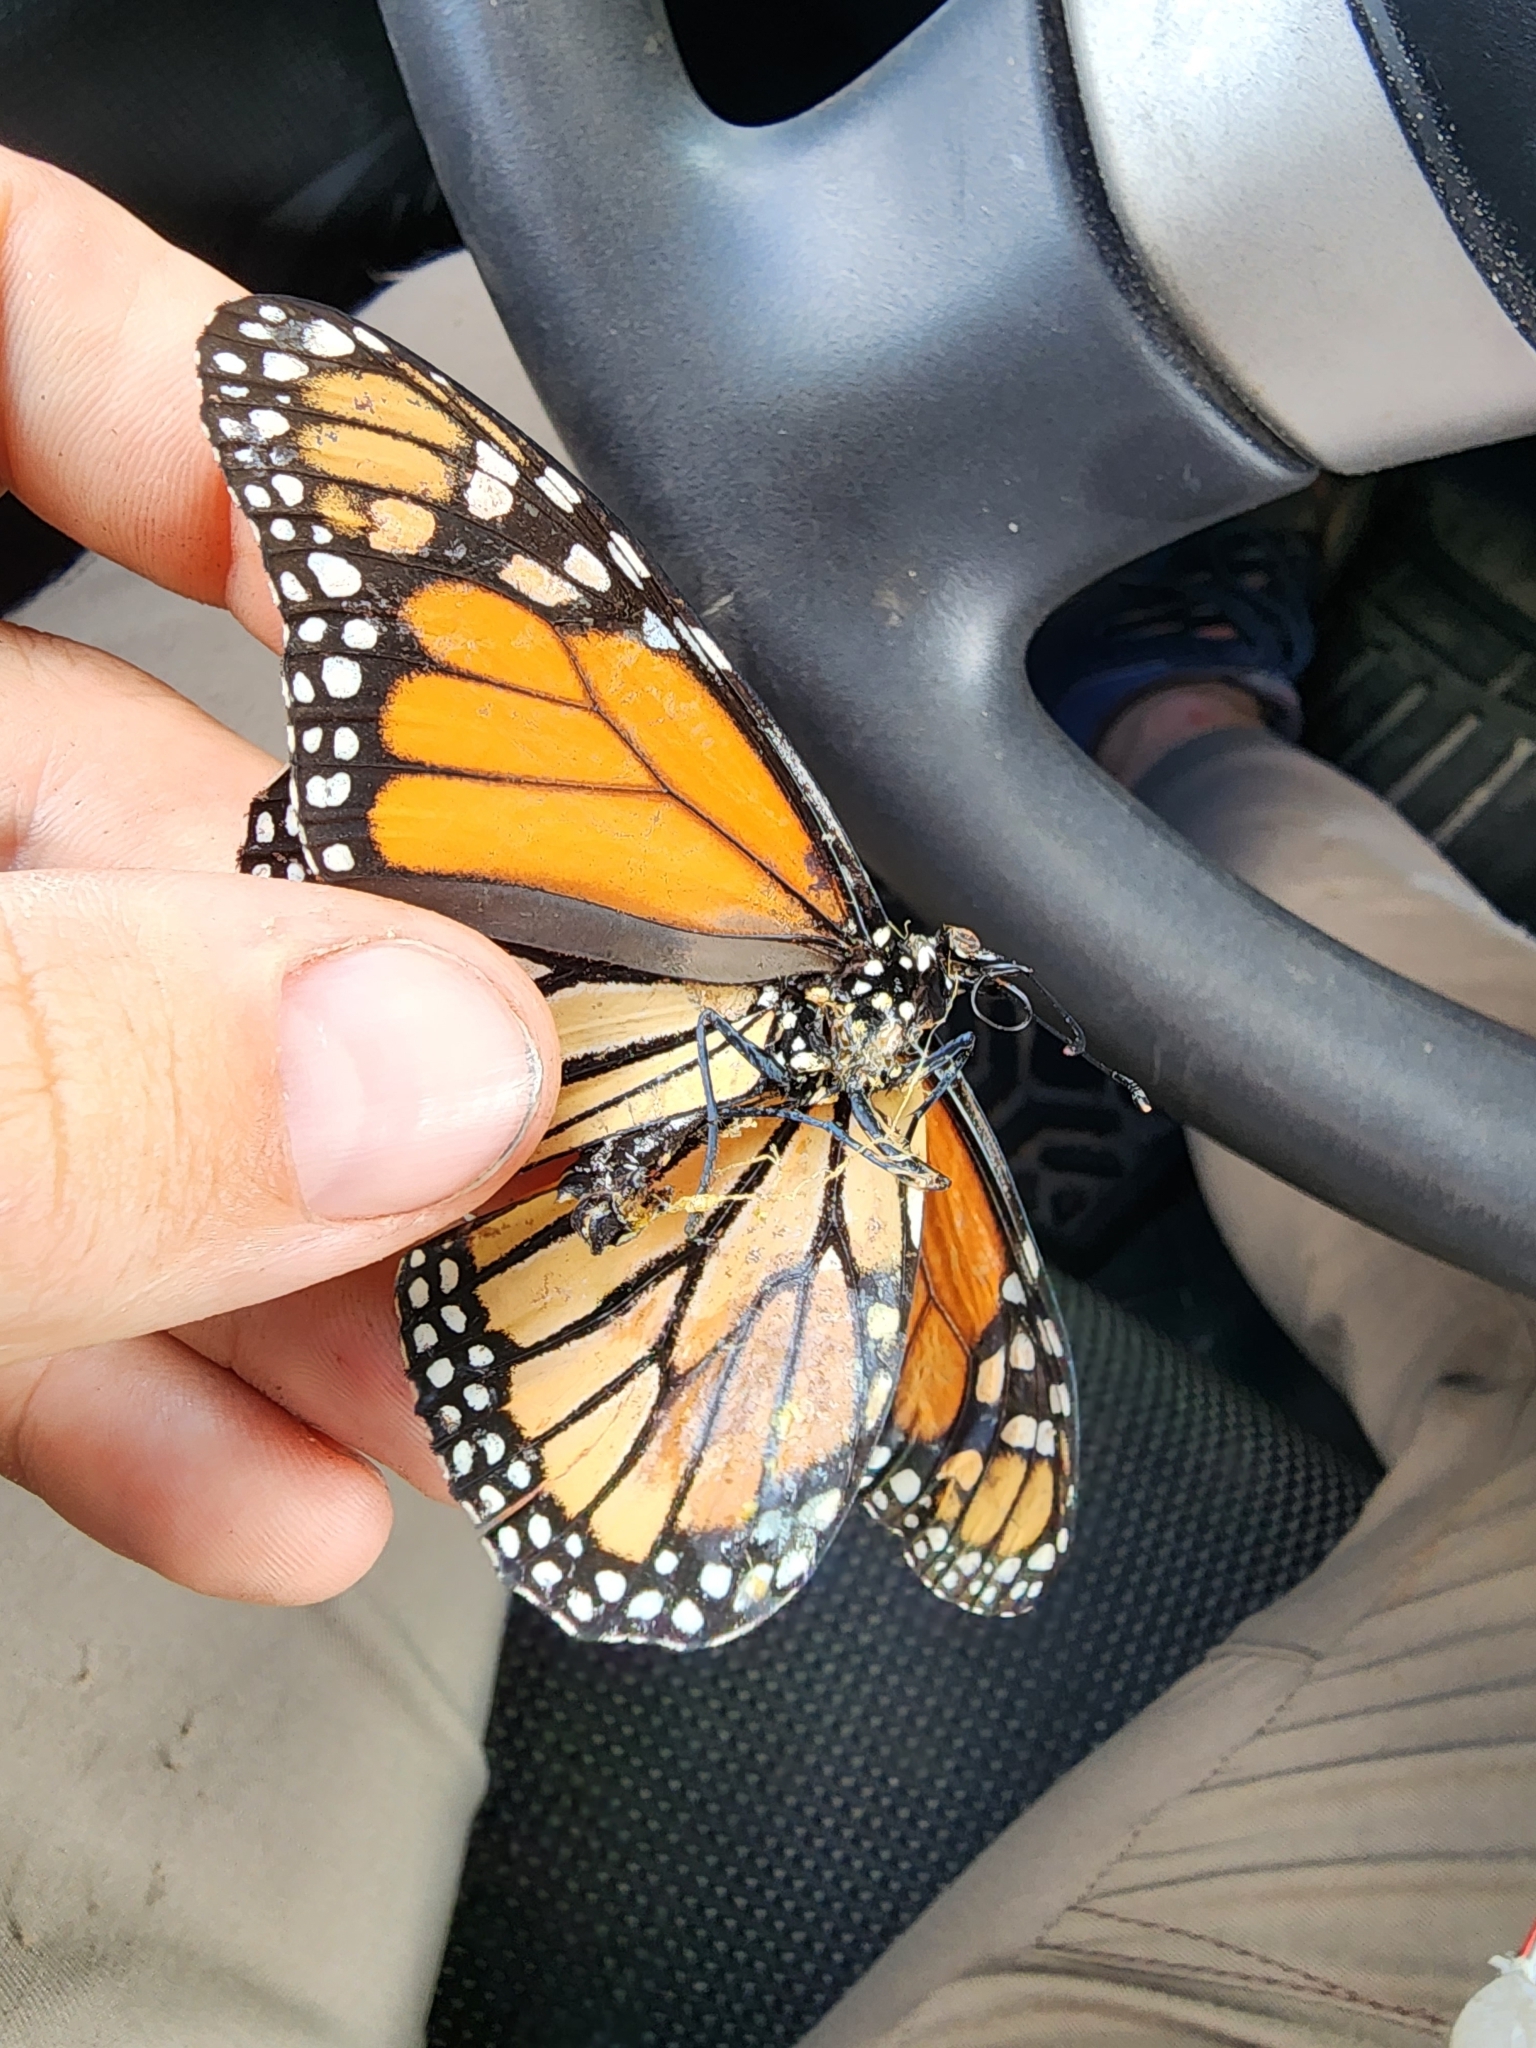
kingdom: Animalia
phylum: Arthropoda
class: Insecta
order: Lepidoptera
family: Nymphalidae
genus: Danaus
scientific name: Danaus plexippus
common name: Monarch
